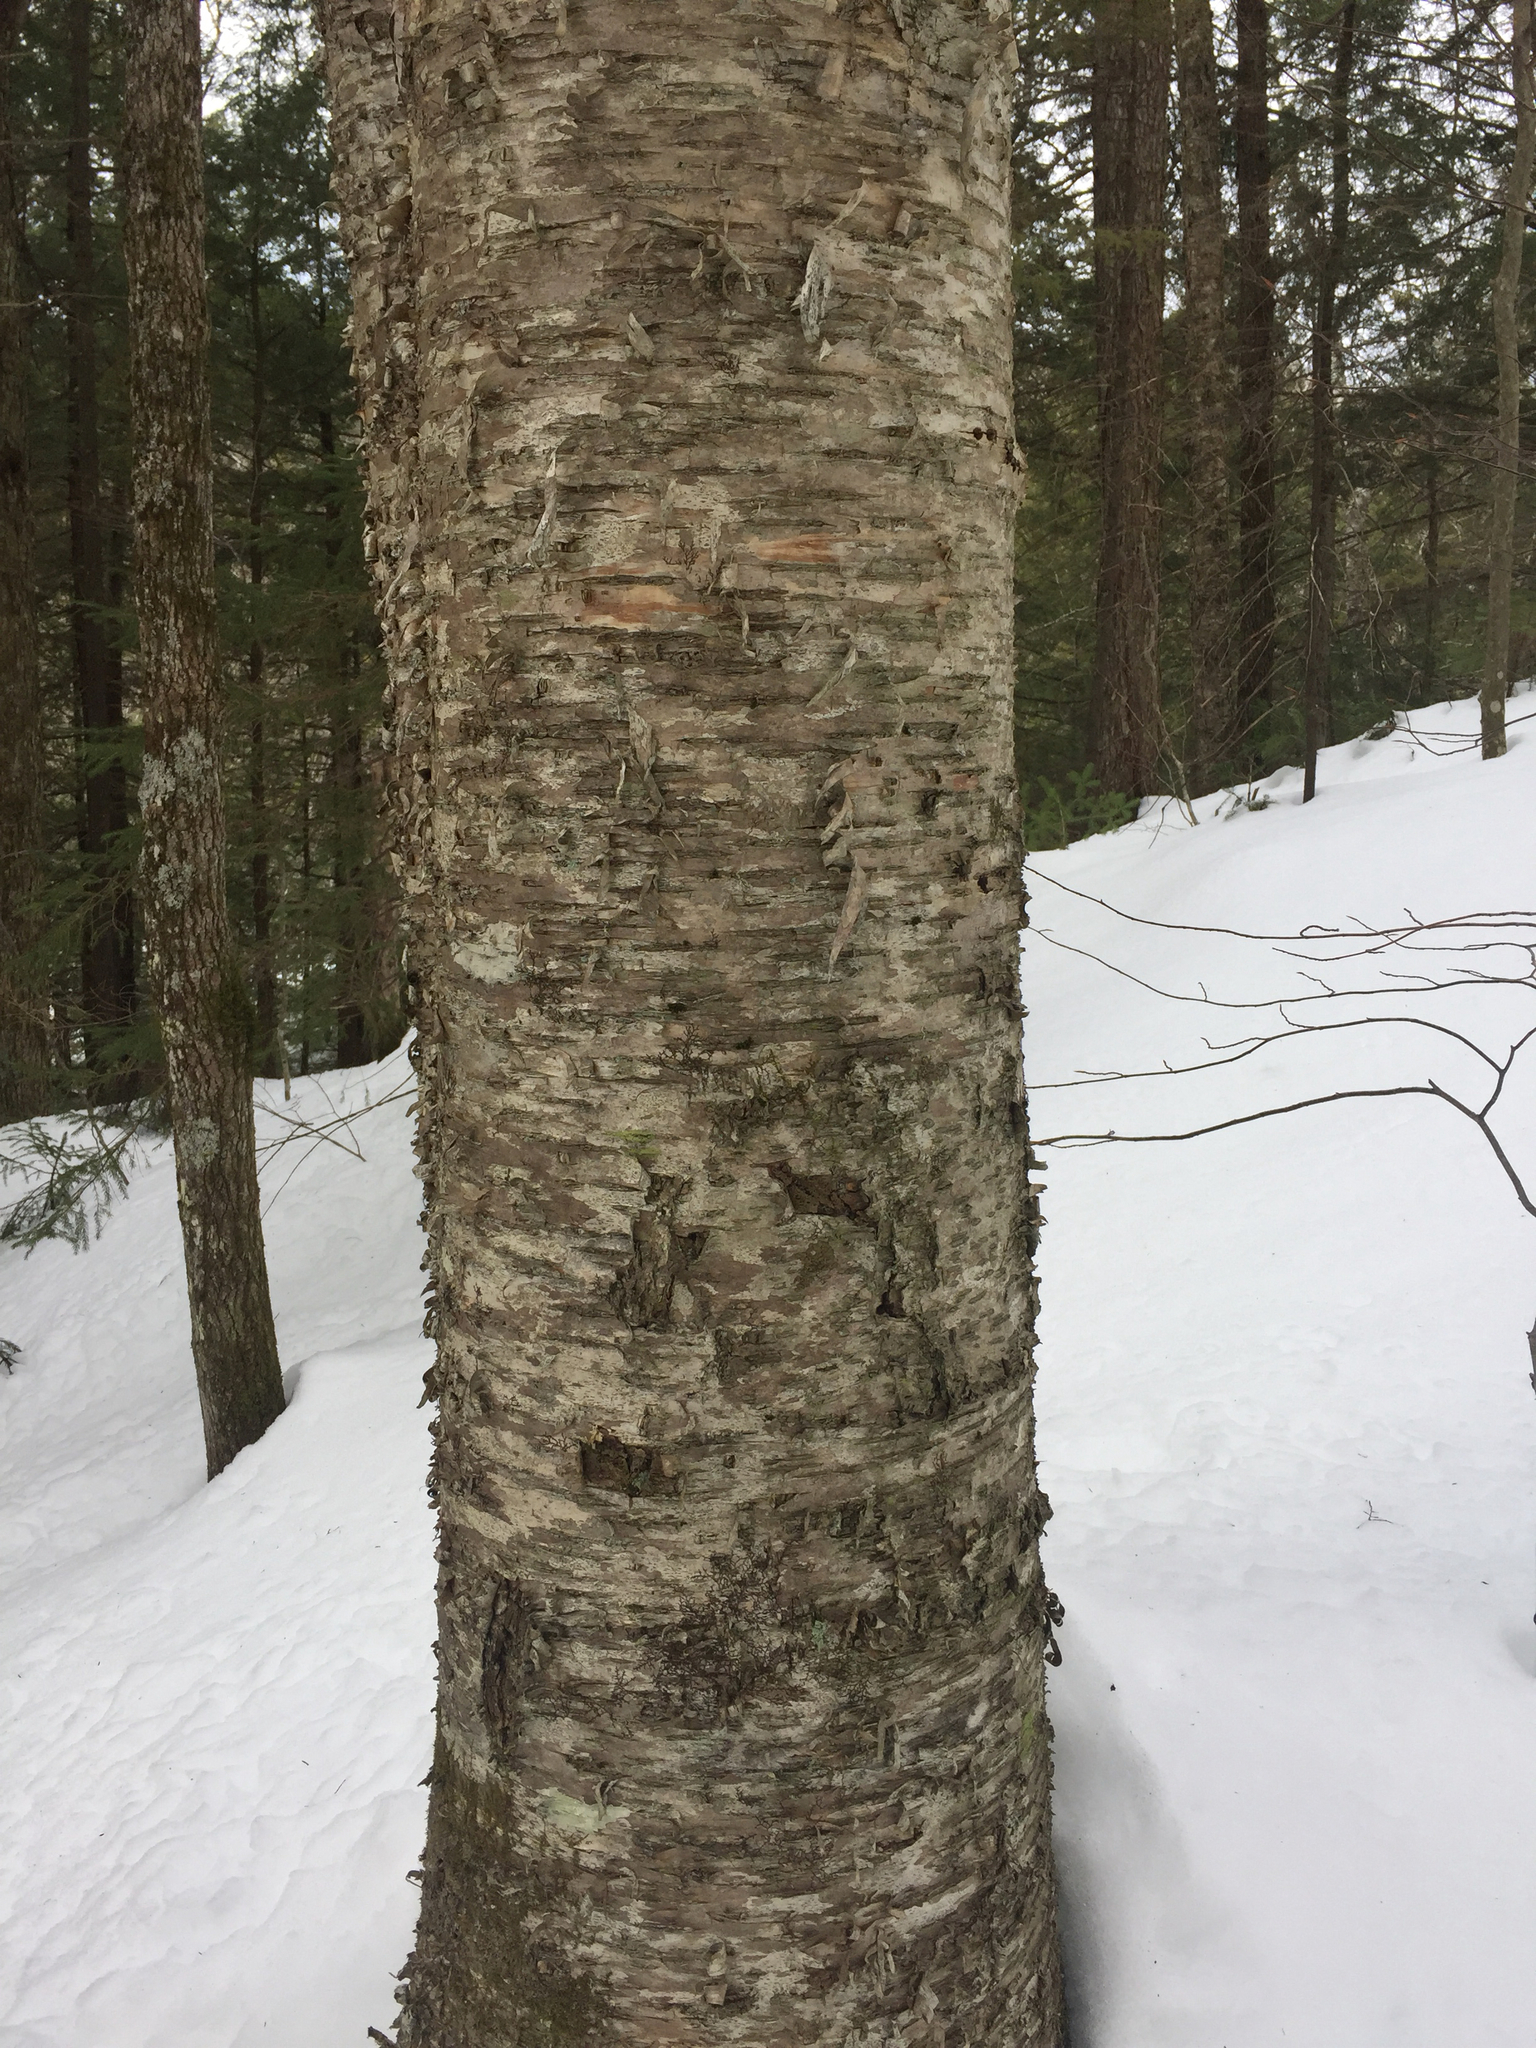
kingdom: Plantae
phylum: Tracheophyta
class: Magnoliopsida
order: Fagales
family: Betulaceae
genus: Betula
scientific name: Betula alleghaniensis
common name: Yellow birch
